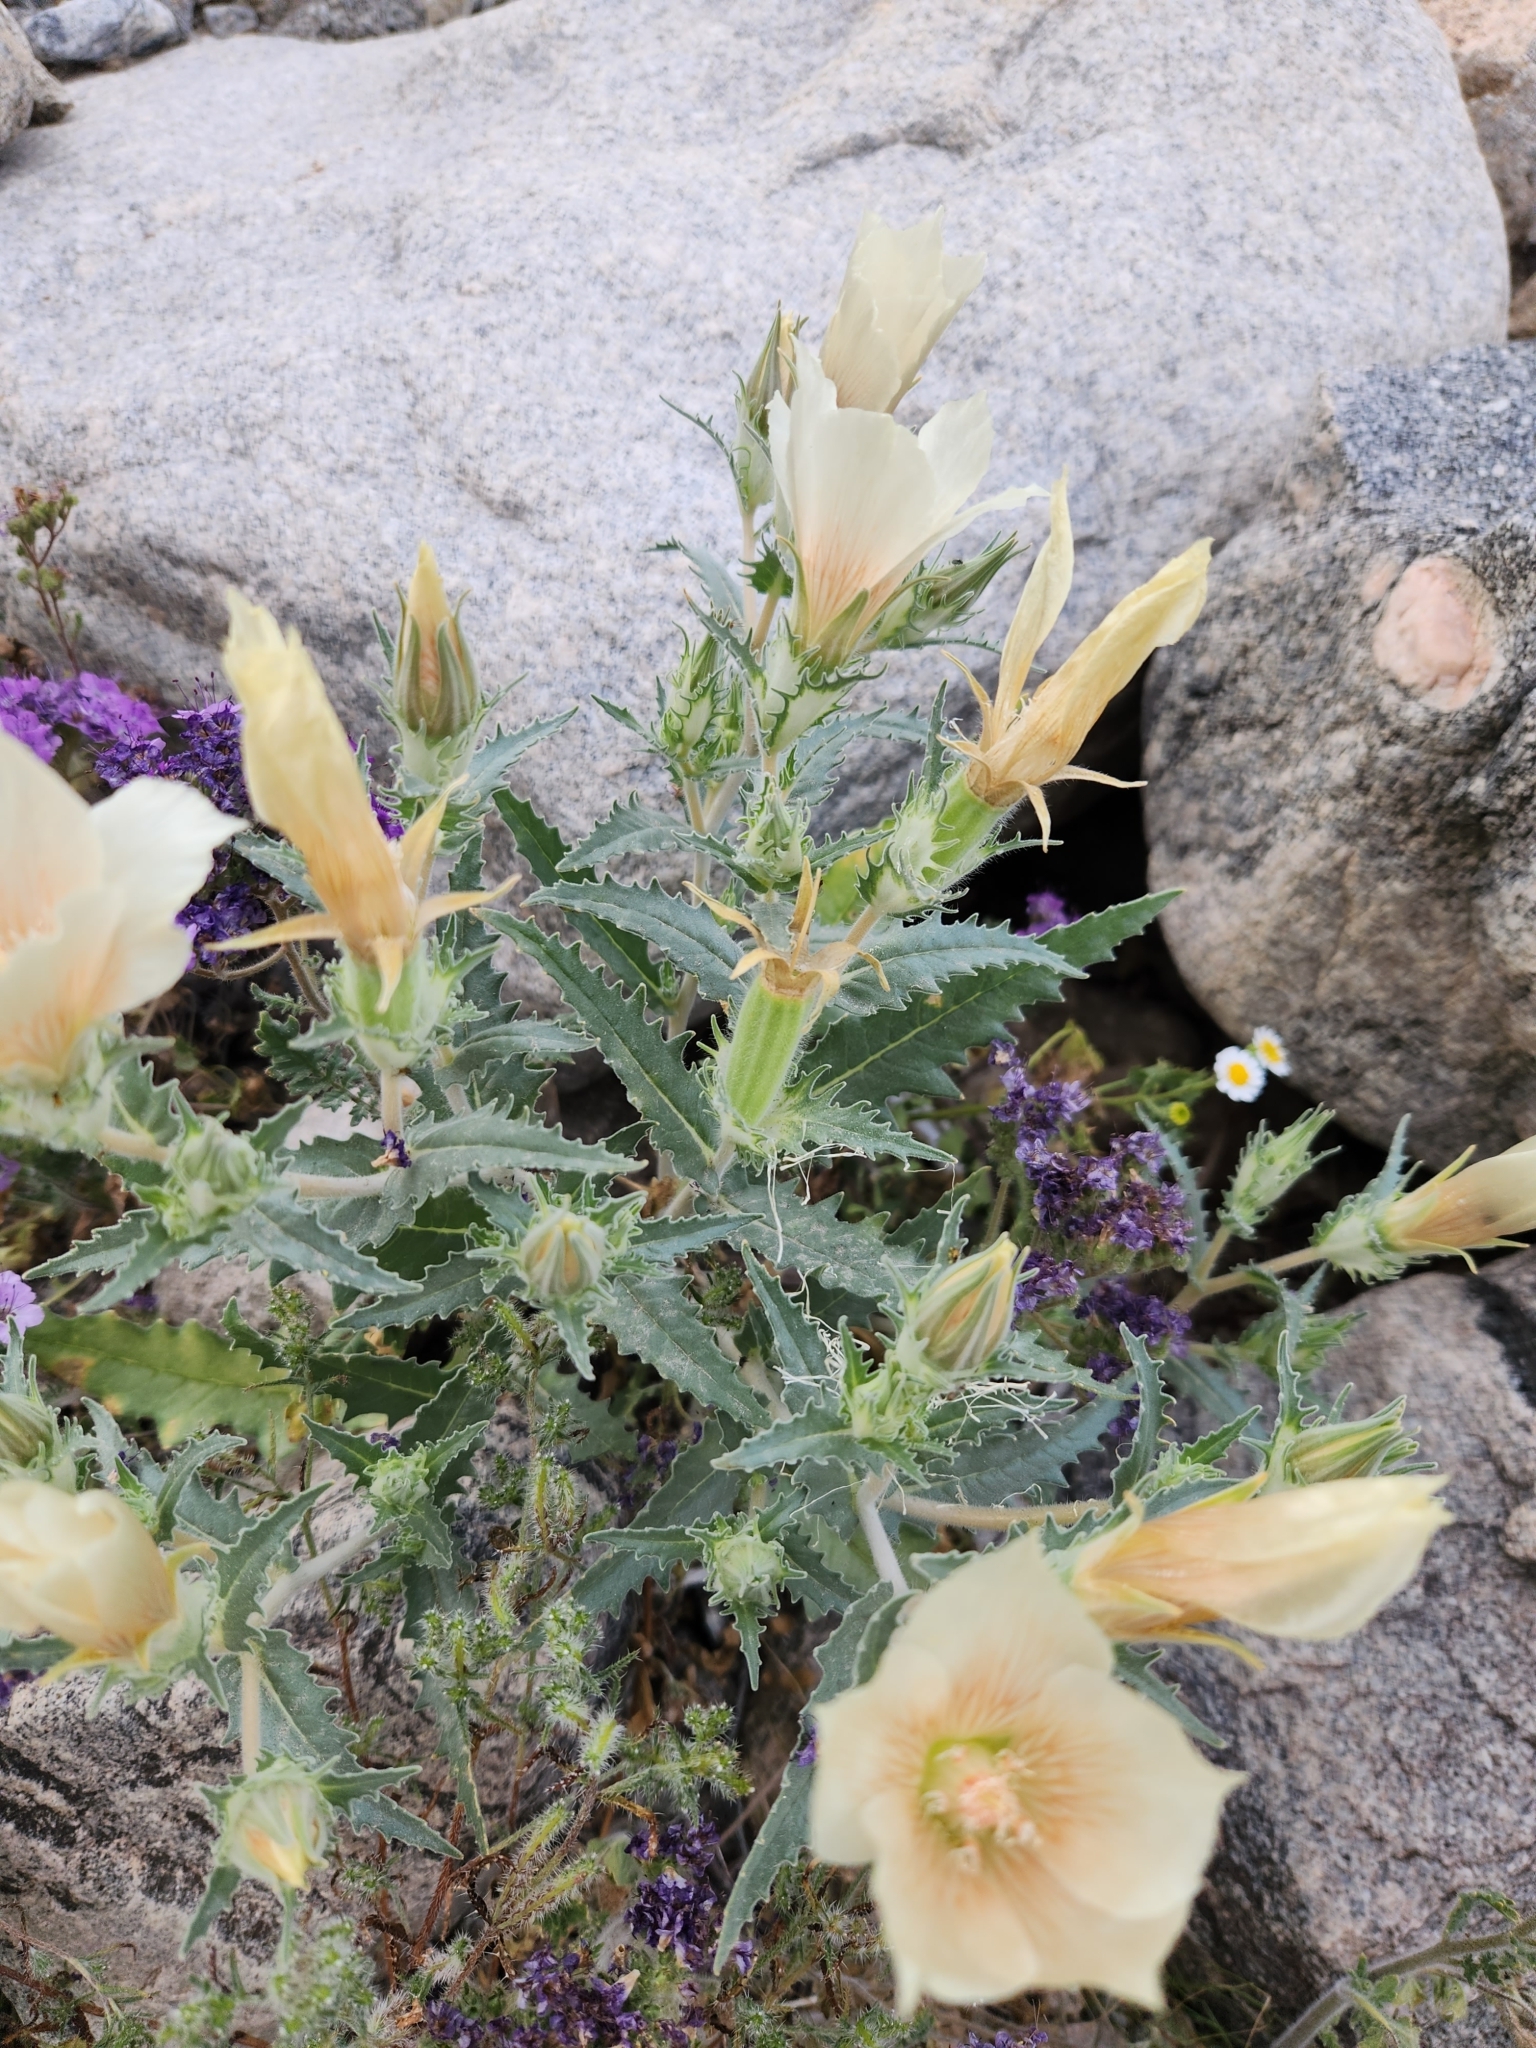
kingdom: Plantae
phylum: Tracheophyta
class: Magnoliopsida
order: Cornales
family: Loasaceae
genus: Mentzelia
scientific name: Mentzelia involucrata
